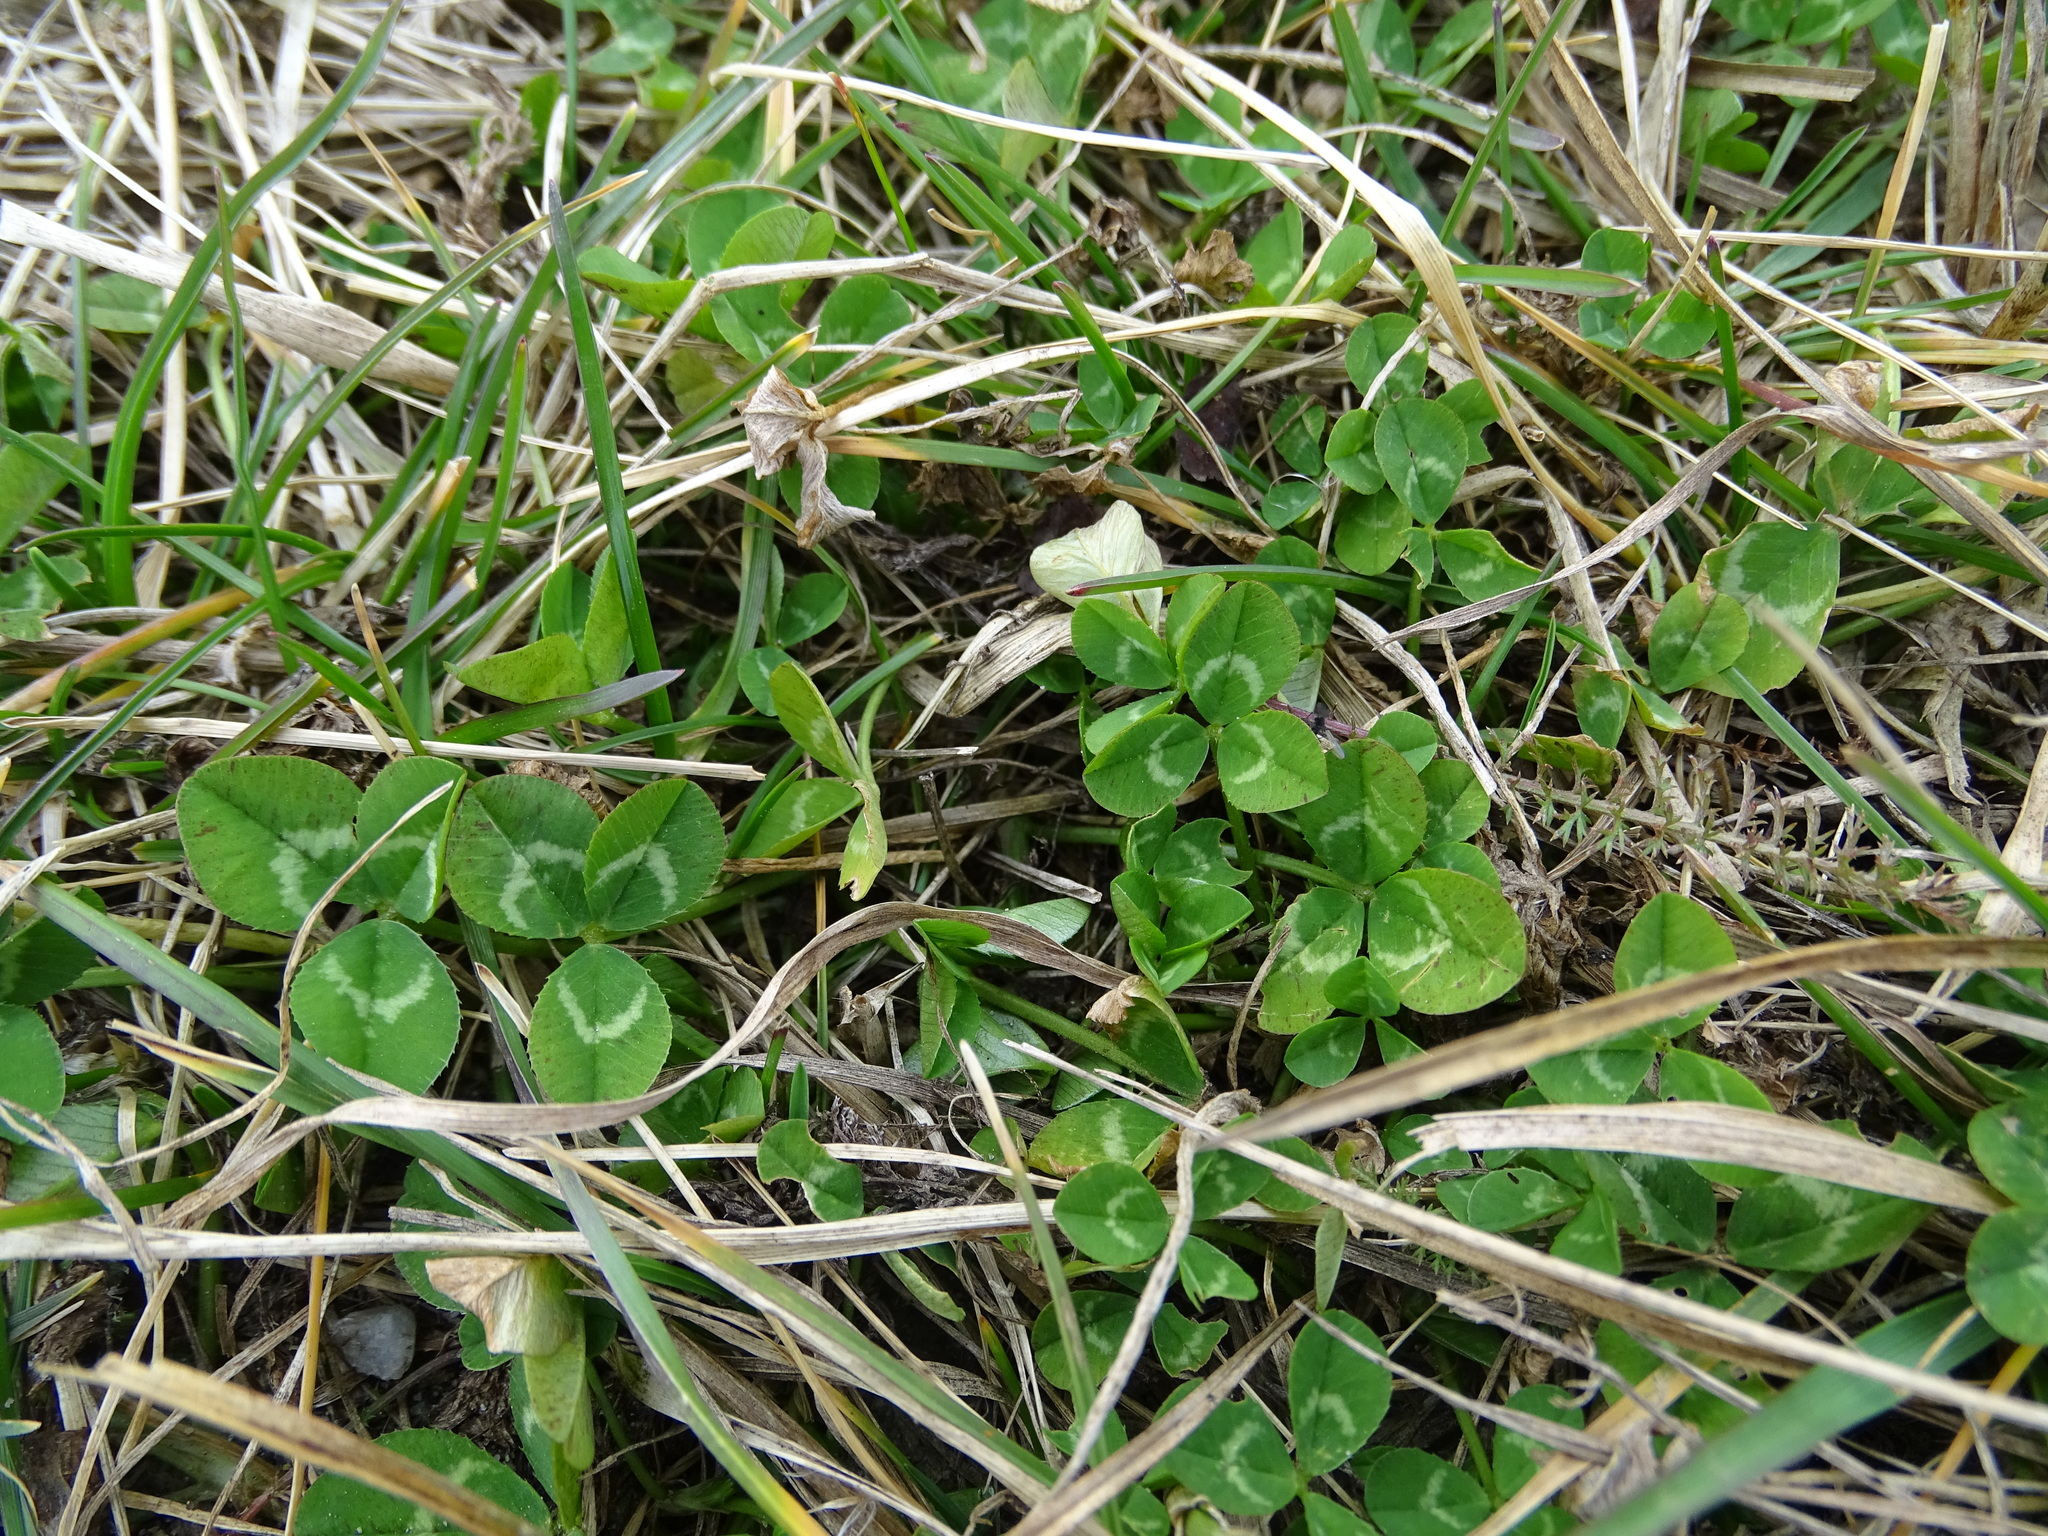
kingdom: Plantae
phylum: Tracheophyta
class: Magnoliopsida
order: Fabales
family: Fabaceae
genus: Trifolium
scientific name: Trifolium repens
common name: White clover
